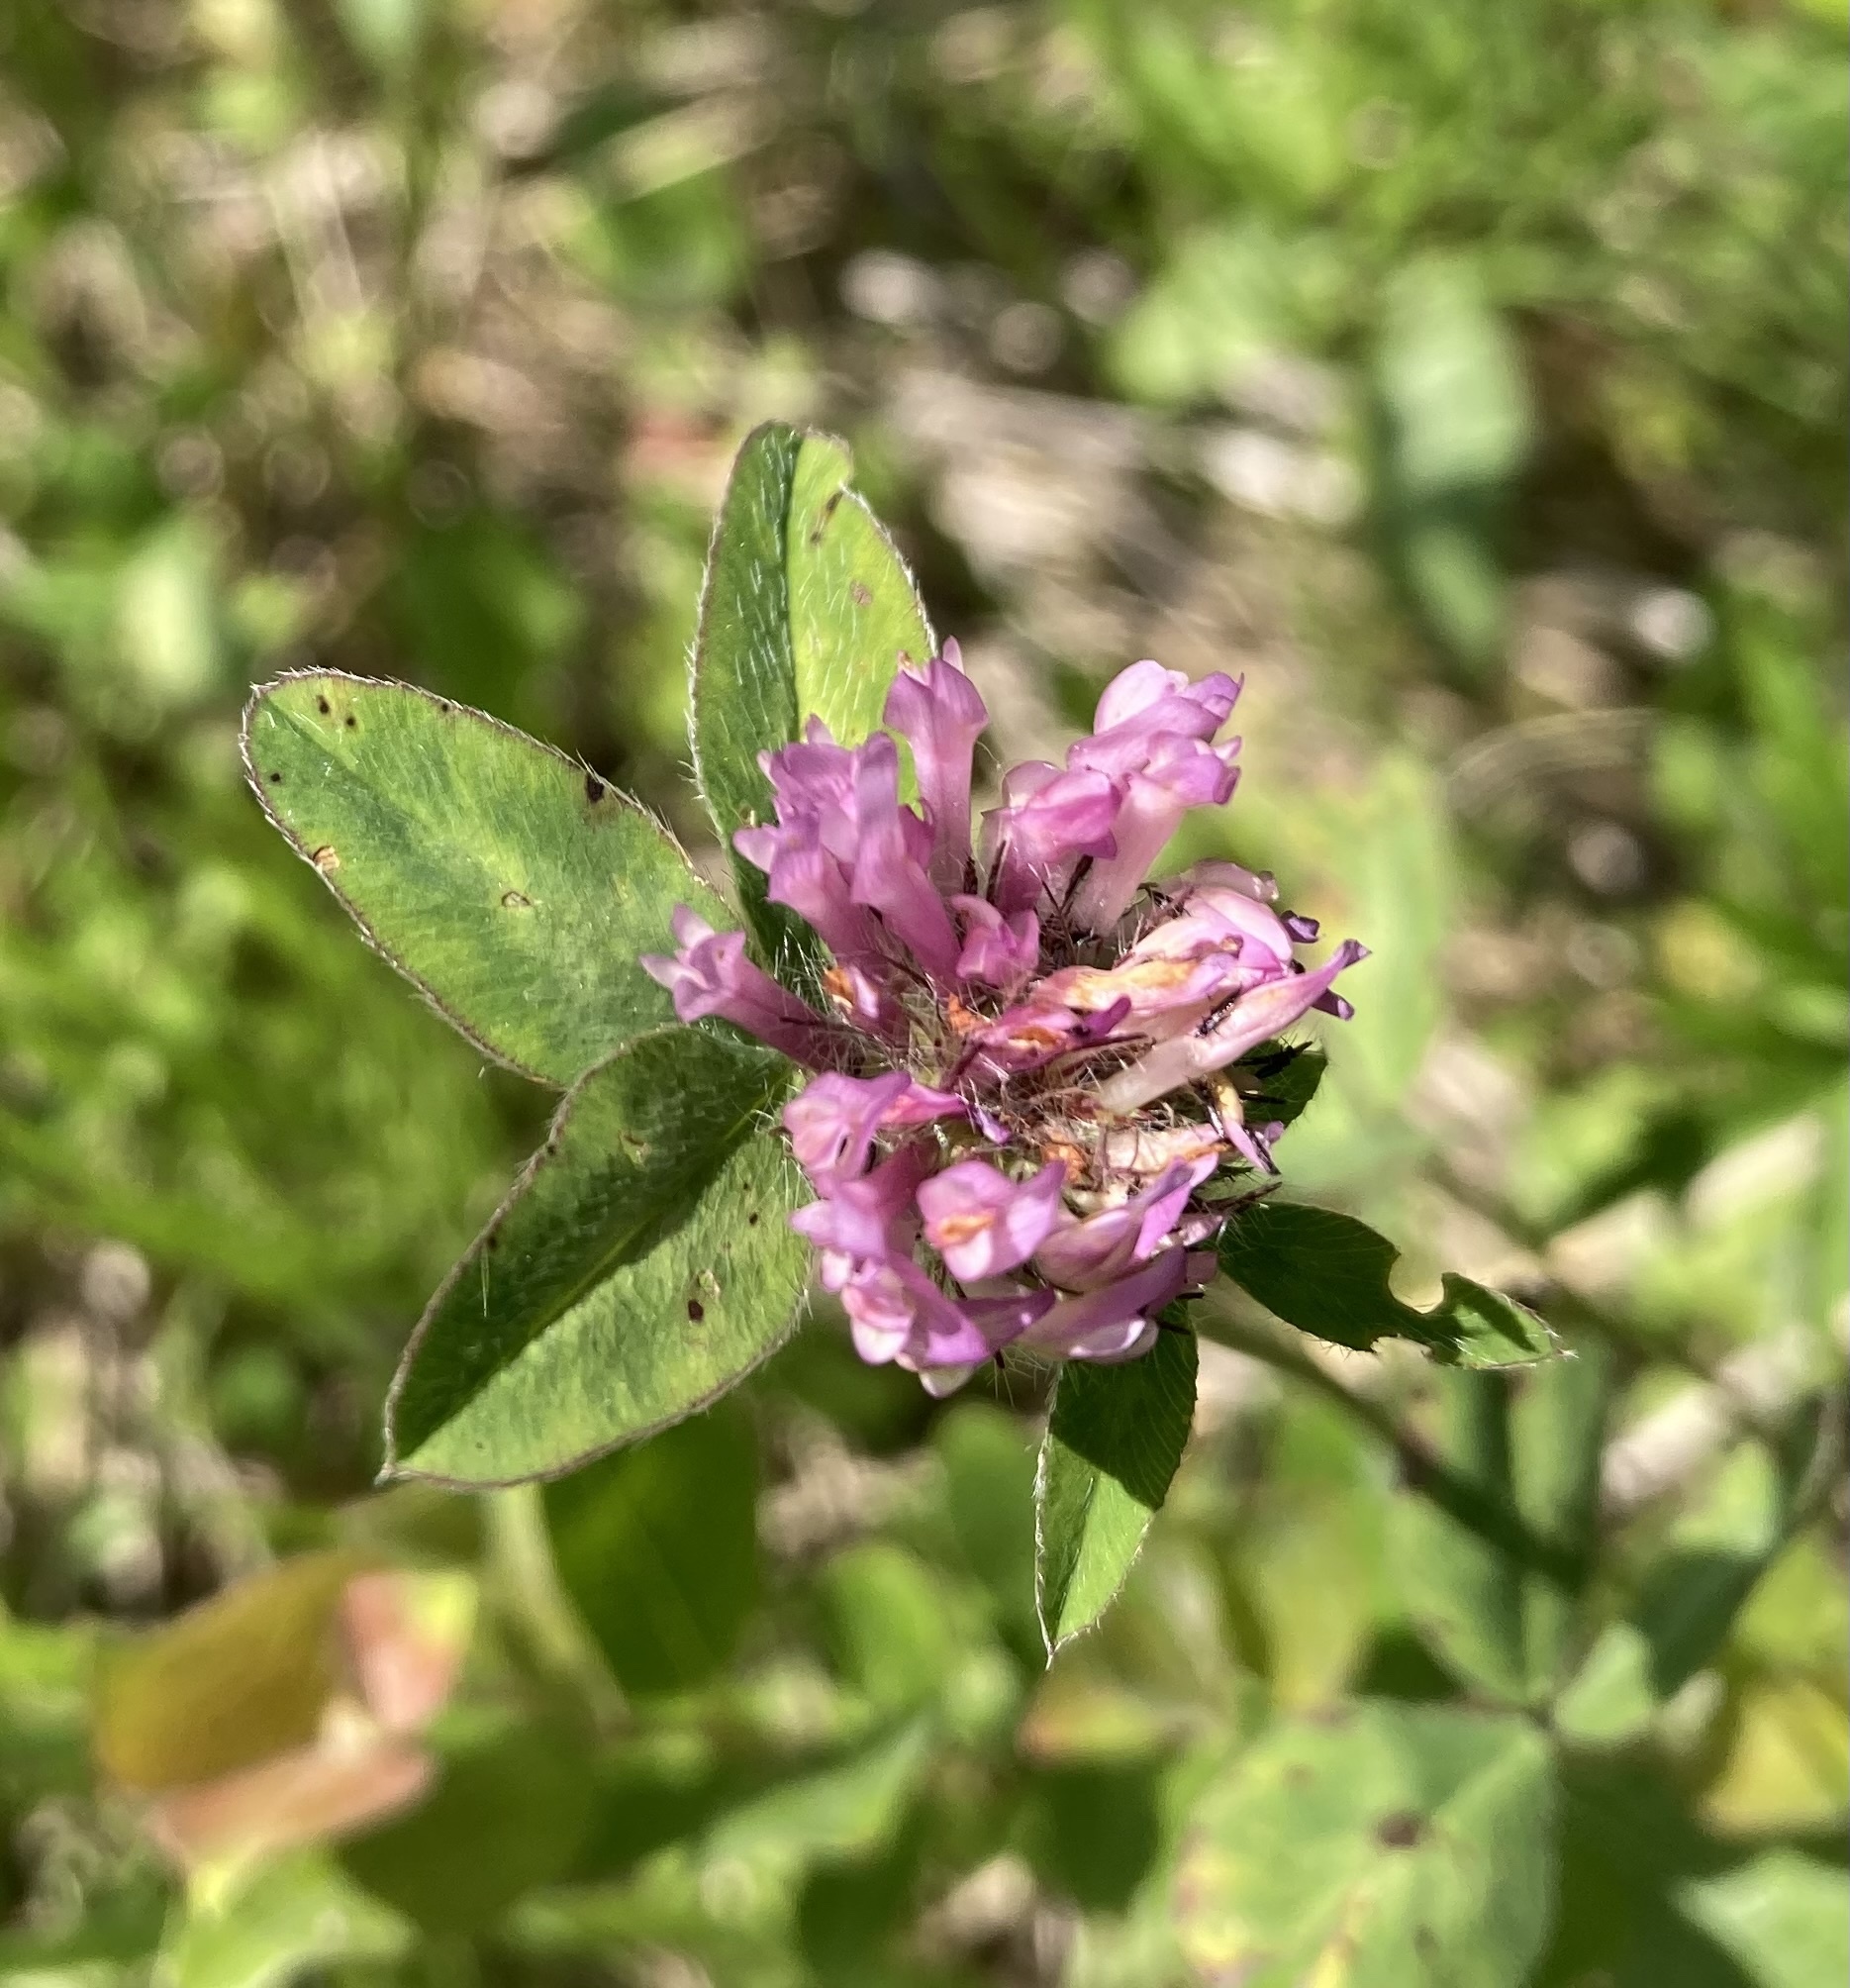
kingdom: Plantae
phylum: Tracheophyta
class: Magnoliopsida
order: Fabales
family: Fabaceae
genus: Trifolium
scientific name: Trifolium pratense
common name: Red clover
